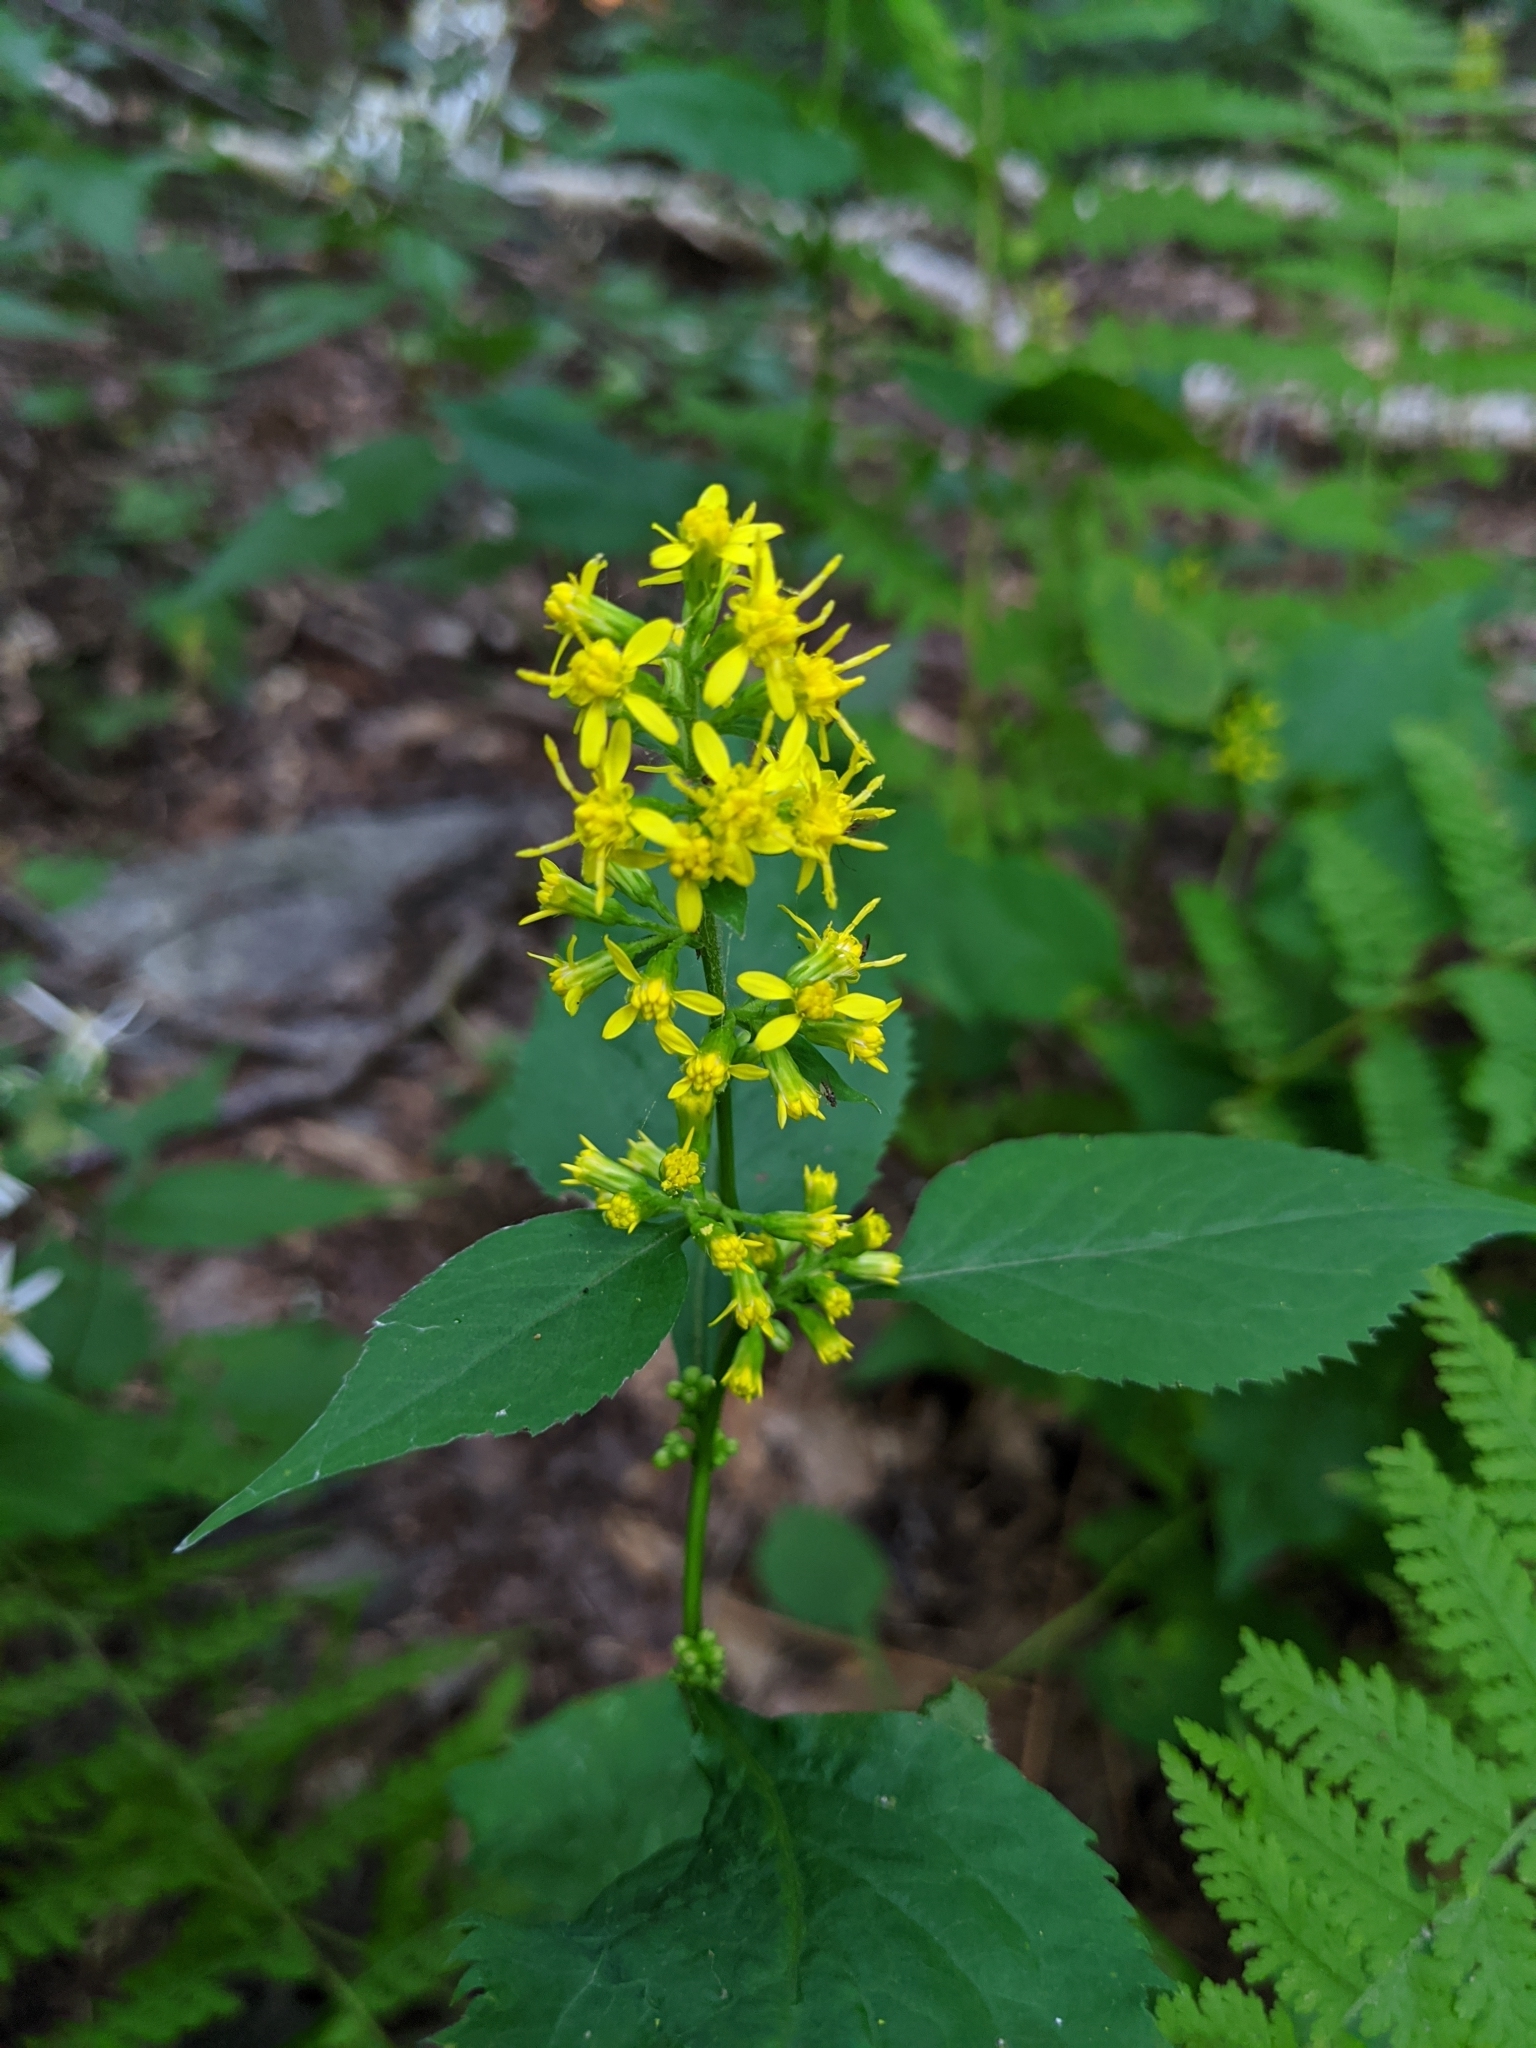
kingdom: Plantae
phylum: Tracheophyta
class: Magnoliopsida
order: Asterales
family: Asteraceae
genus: Solidago
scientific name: Solidago flexicaulis
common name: Zig-zag goldenrod
